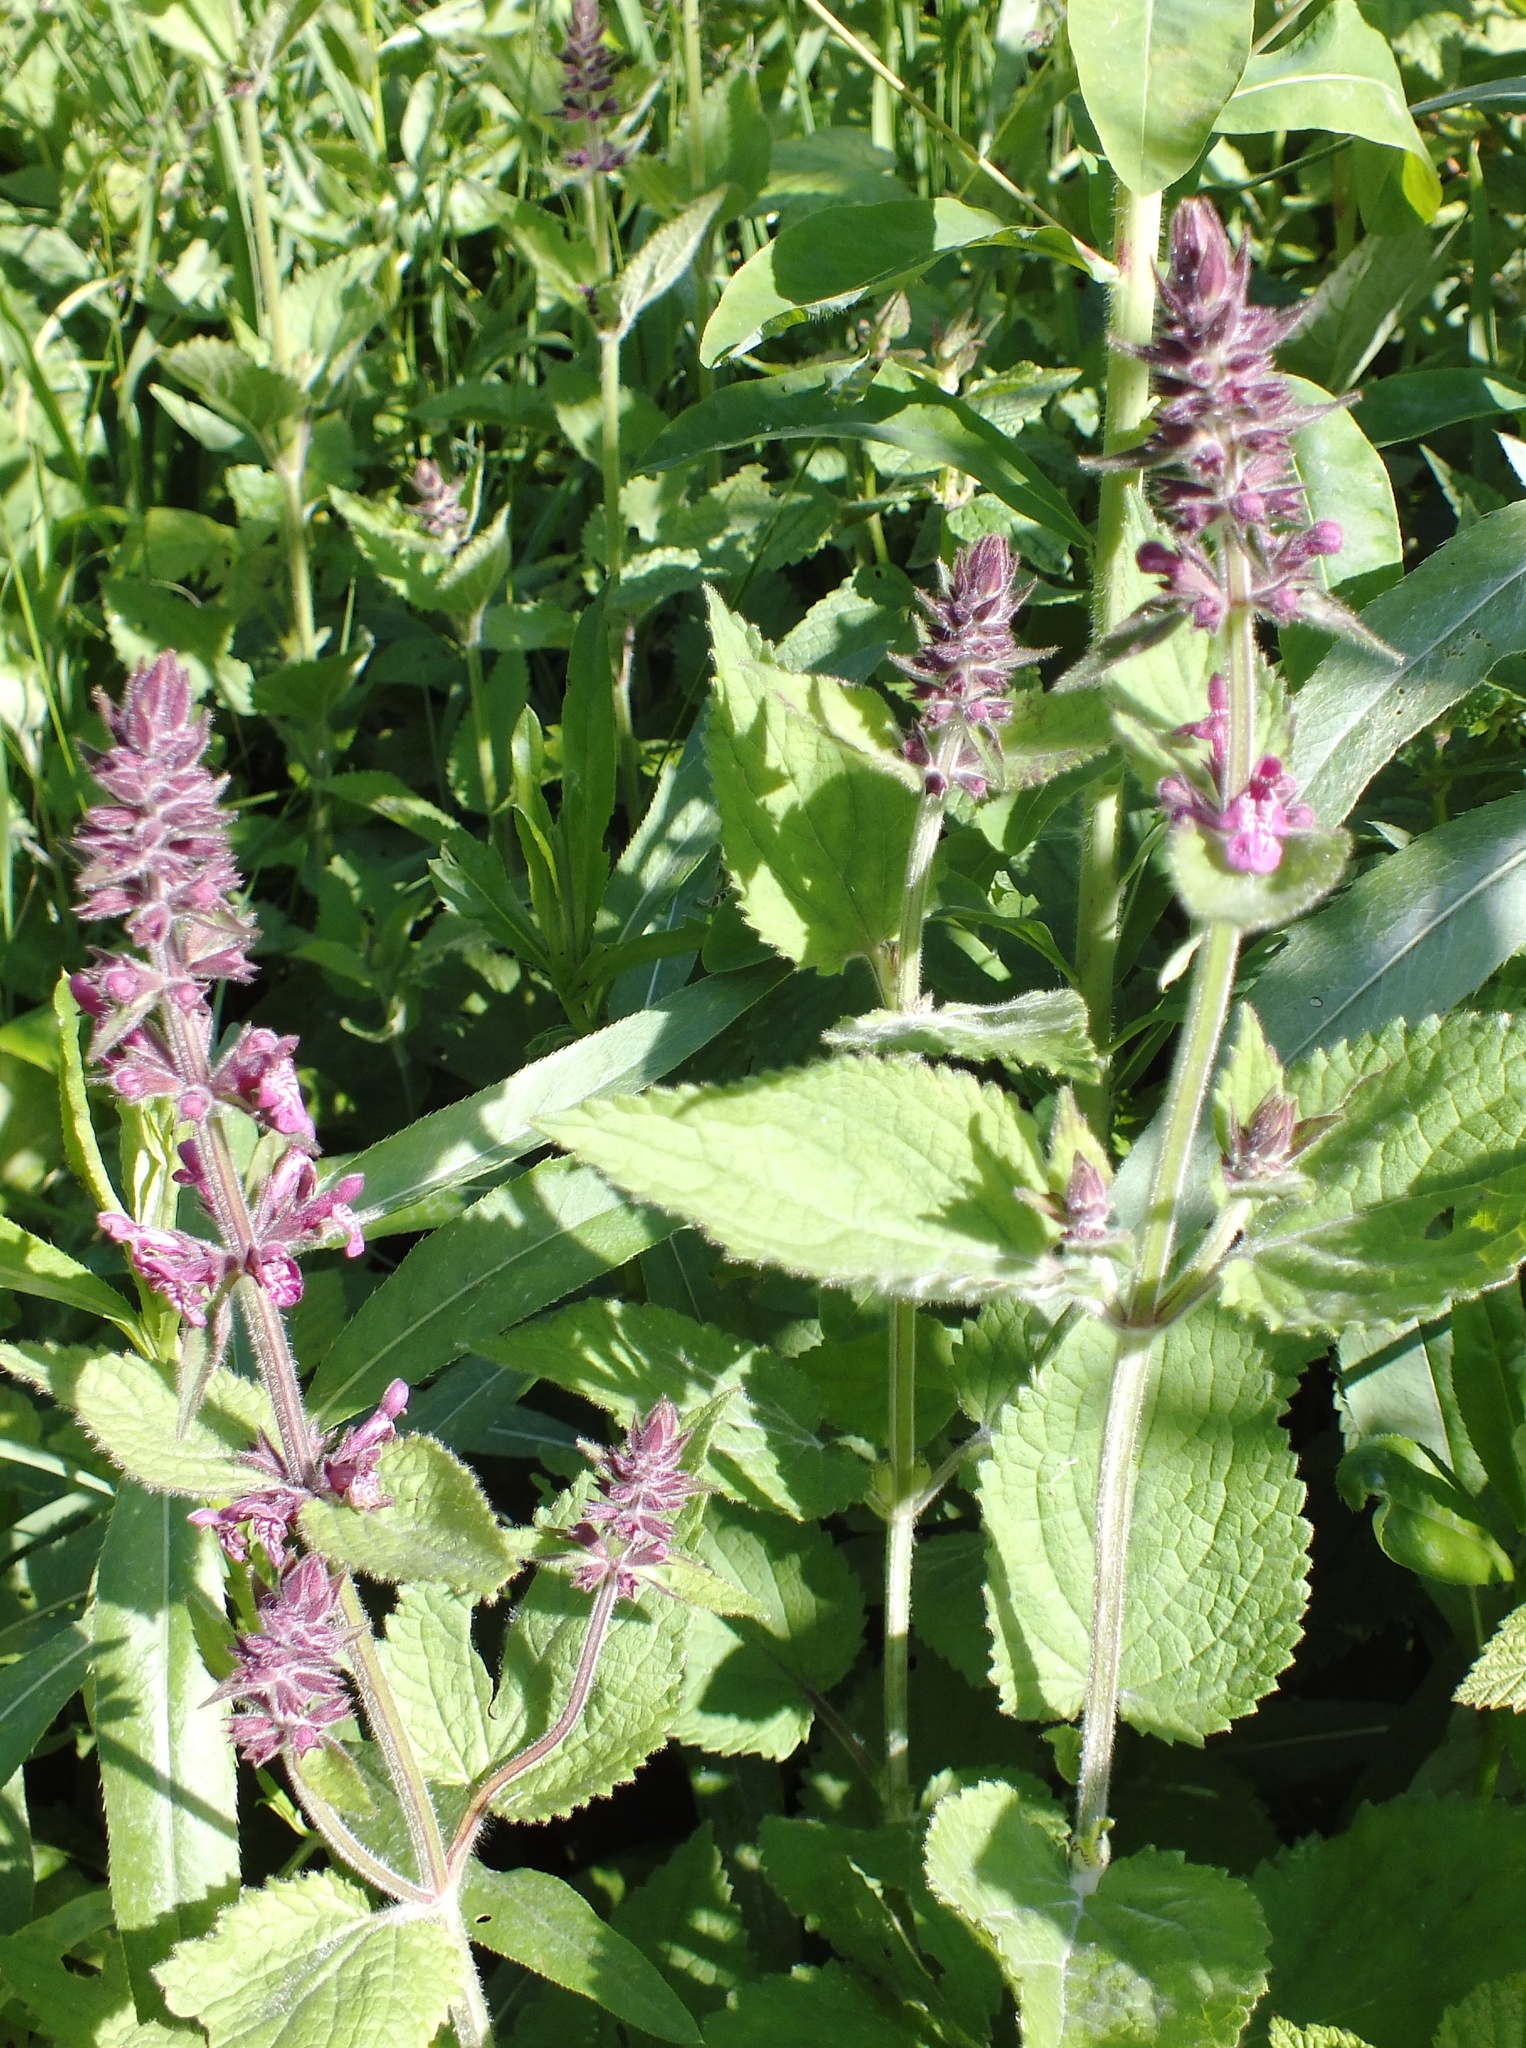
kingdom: Plantae
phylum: Tracheophyta
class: Magnoliopsida
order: Lamiales
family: Lamiaceae
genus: Stachys
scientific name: Stachys sylvatica
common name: Hedge woundwort
